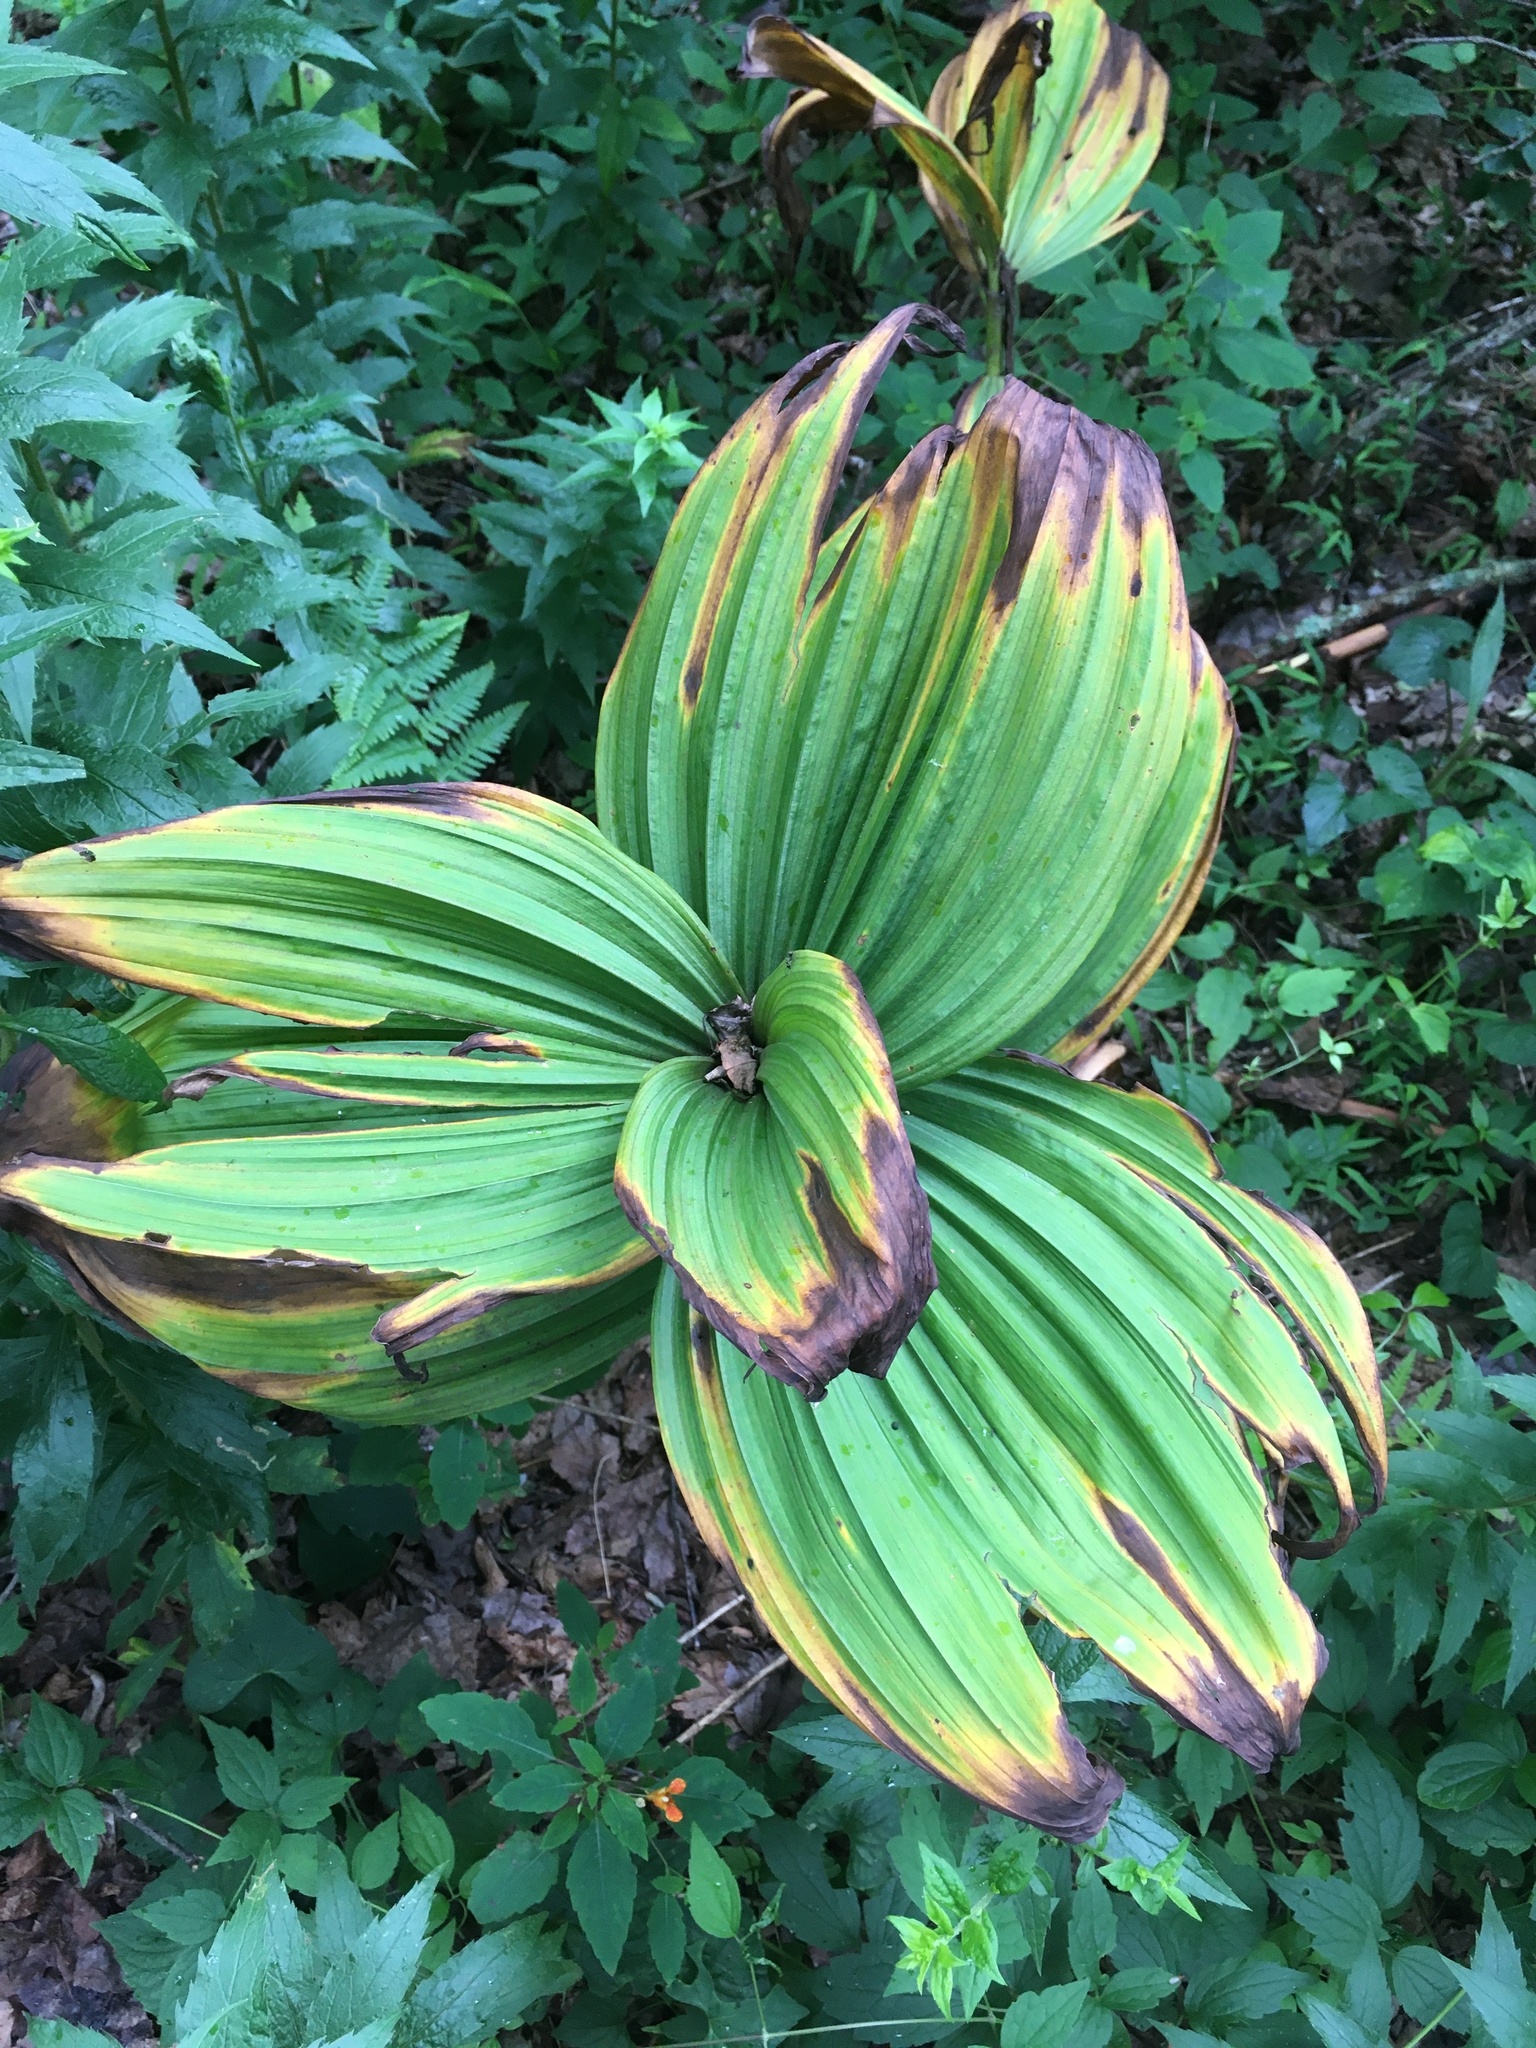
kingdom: Plantae
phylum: Tracheophyta
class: Liliopsida
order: Liliales
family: Melanthiaceae
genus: Veratrum
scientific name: Veratrum viride
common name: American false hellebore
